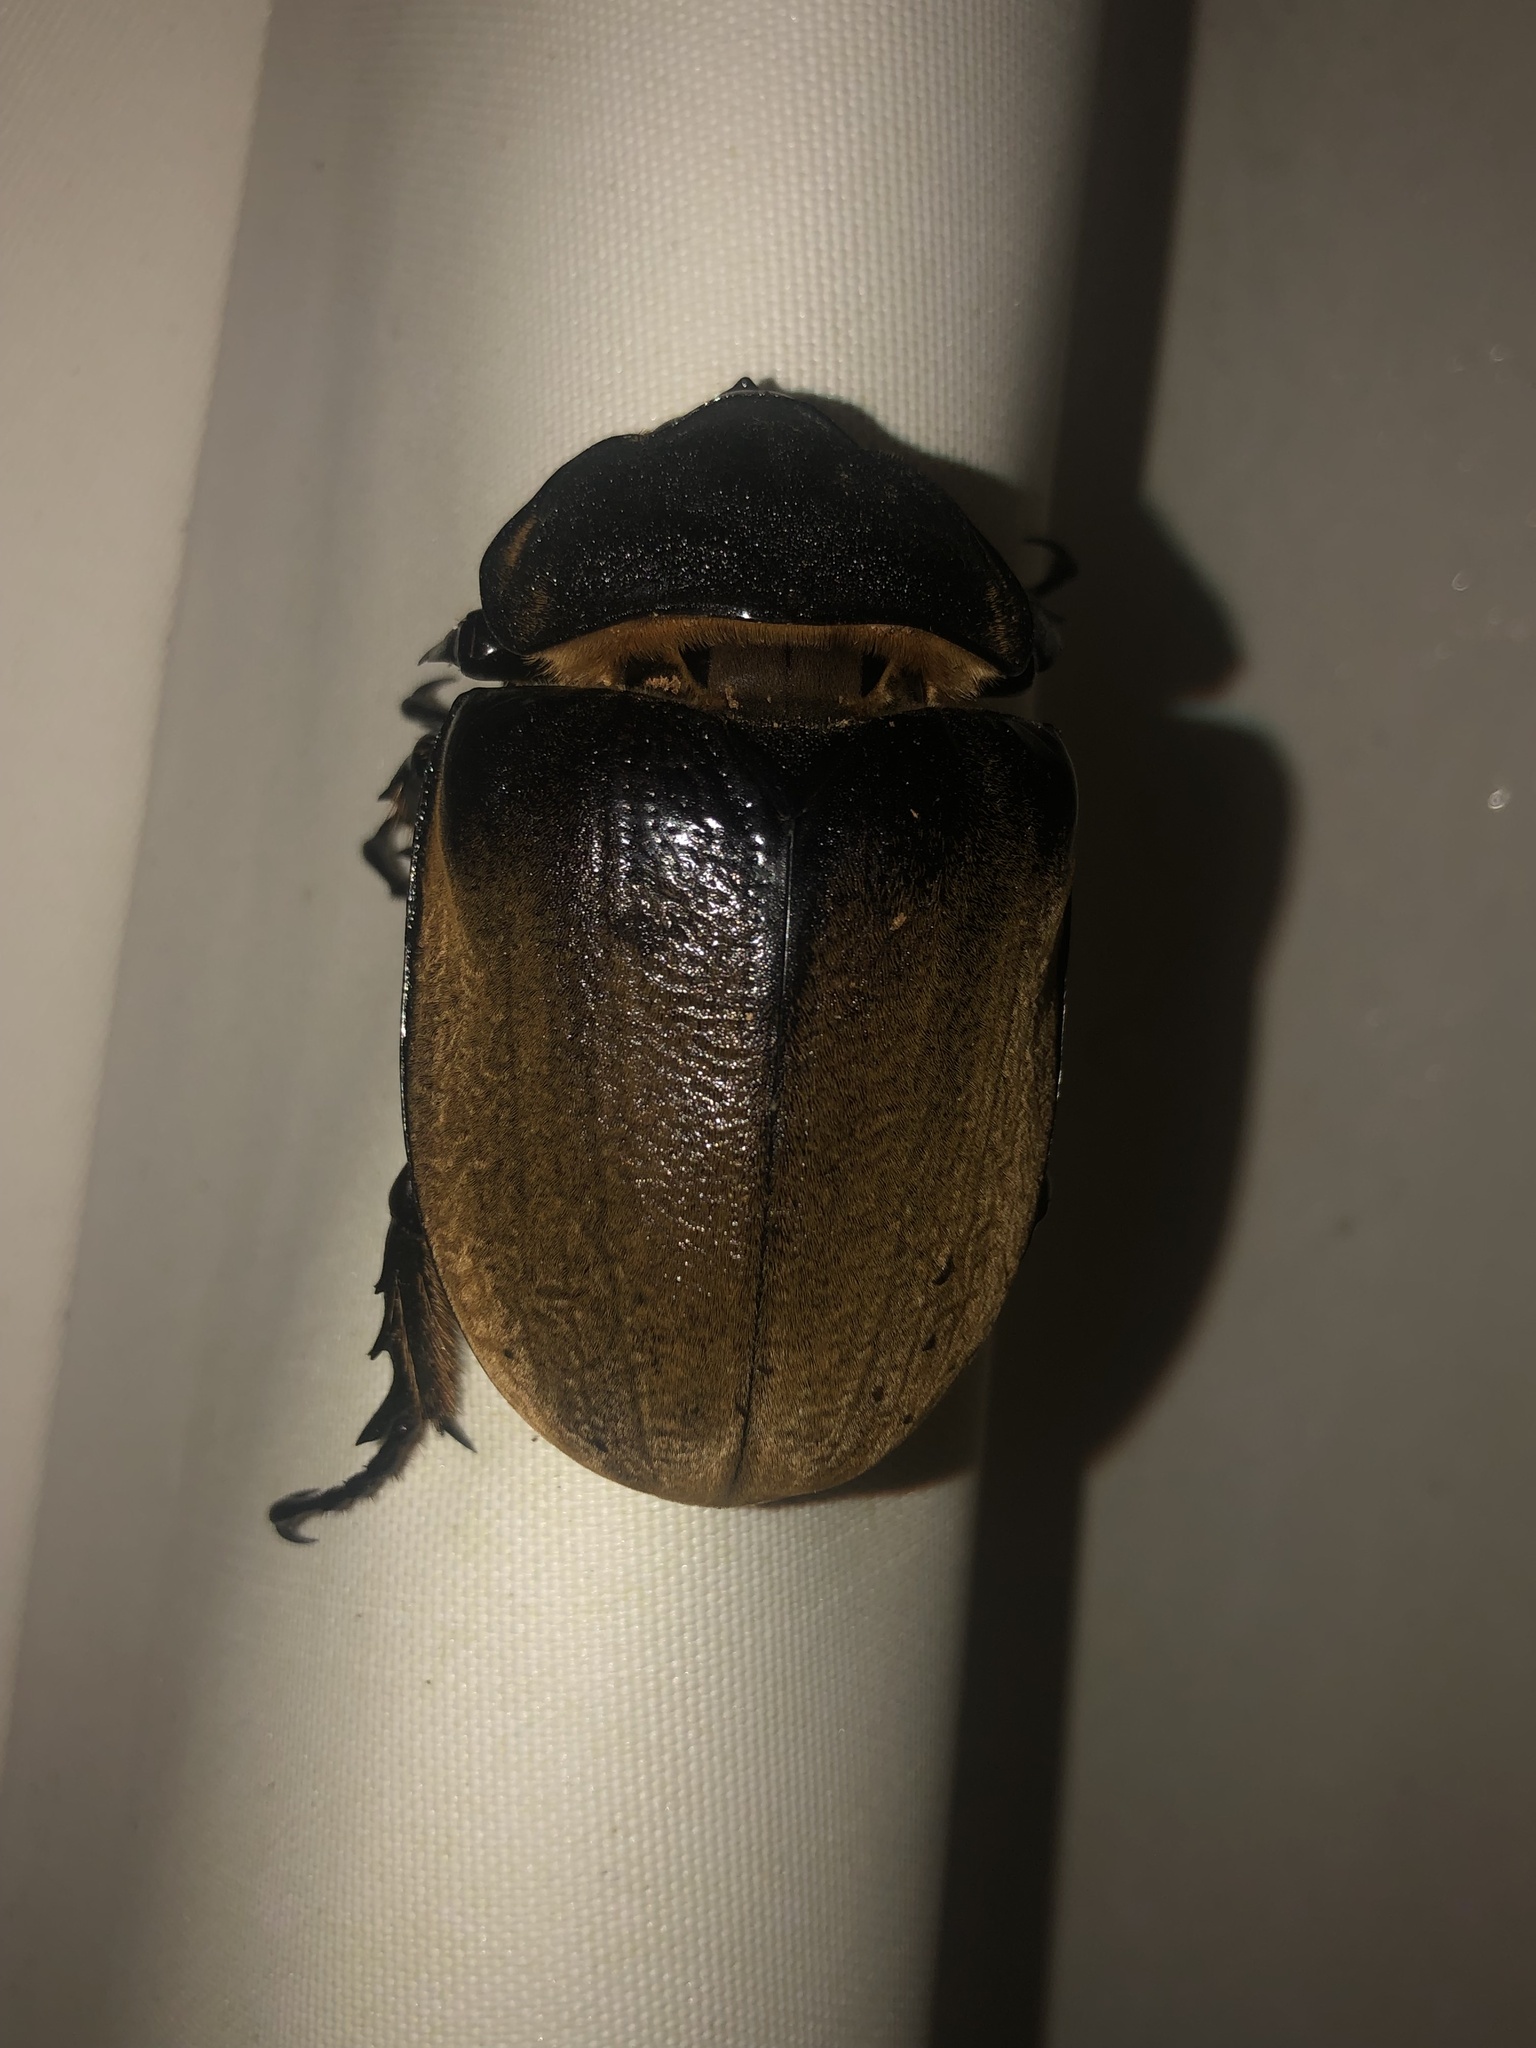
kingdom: Animalia
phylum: Arthropoda
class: Insecta
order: Coleoptera
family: Scarabaeidae
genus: Megasoma
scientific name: Megasoma elephas
